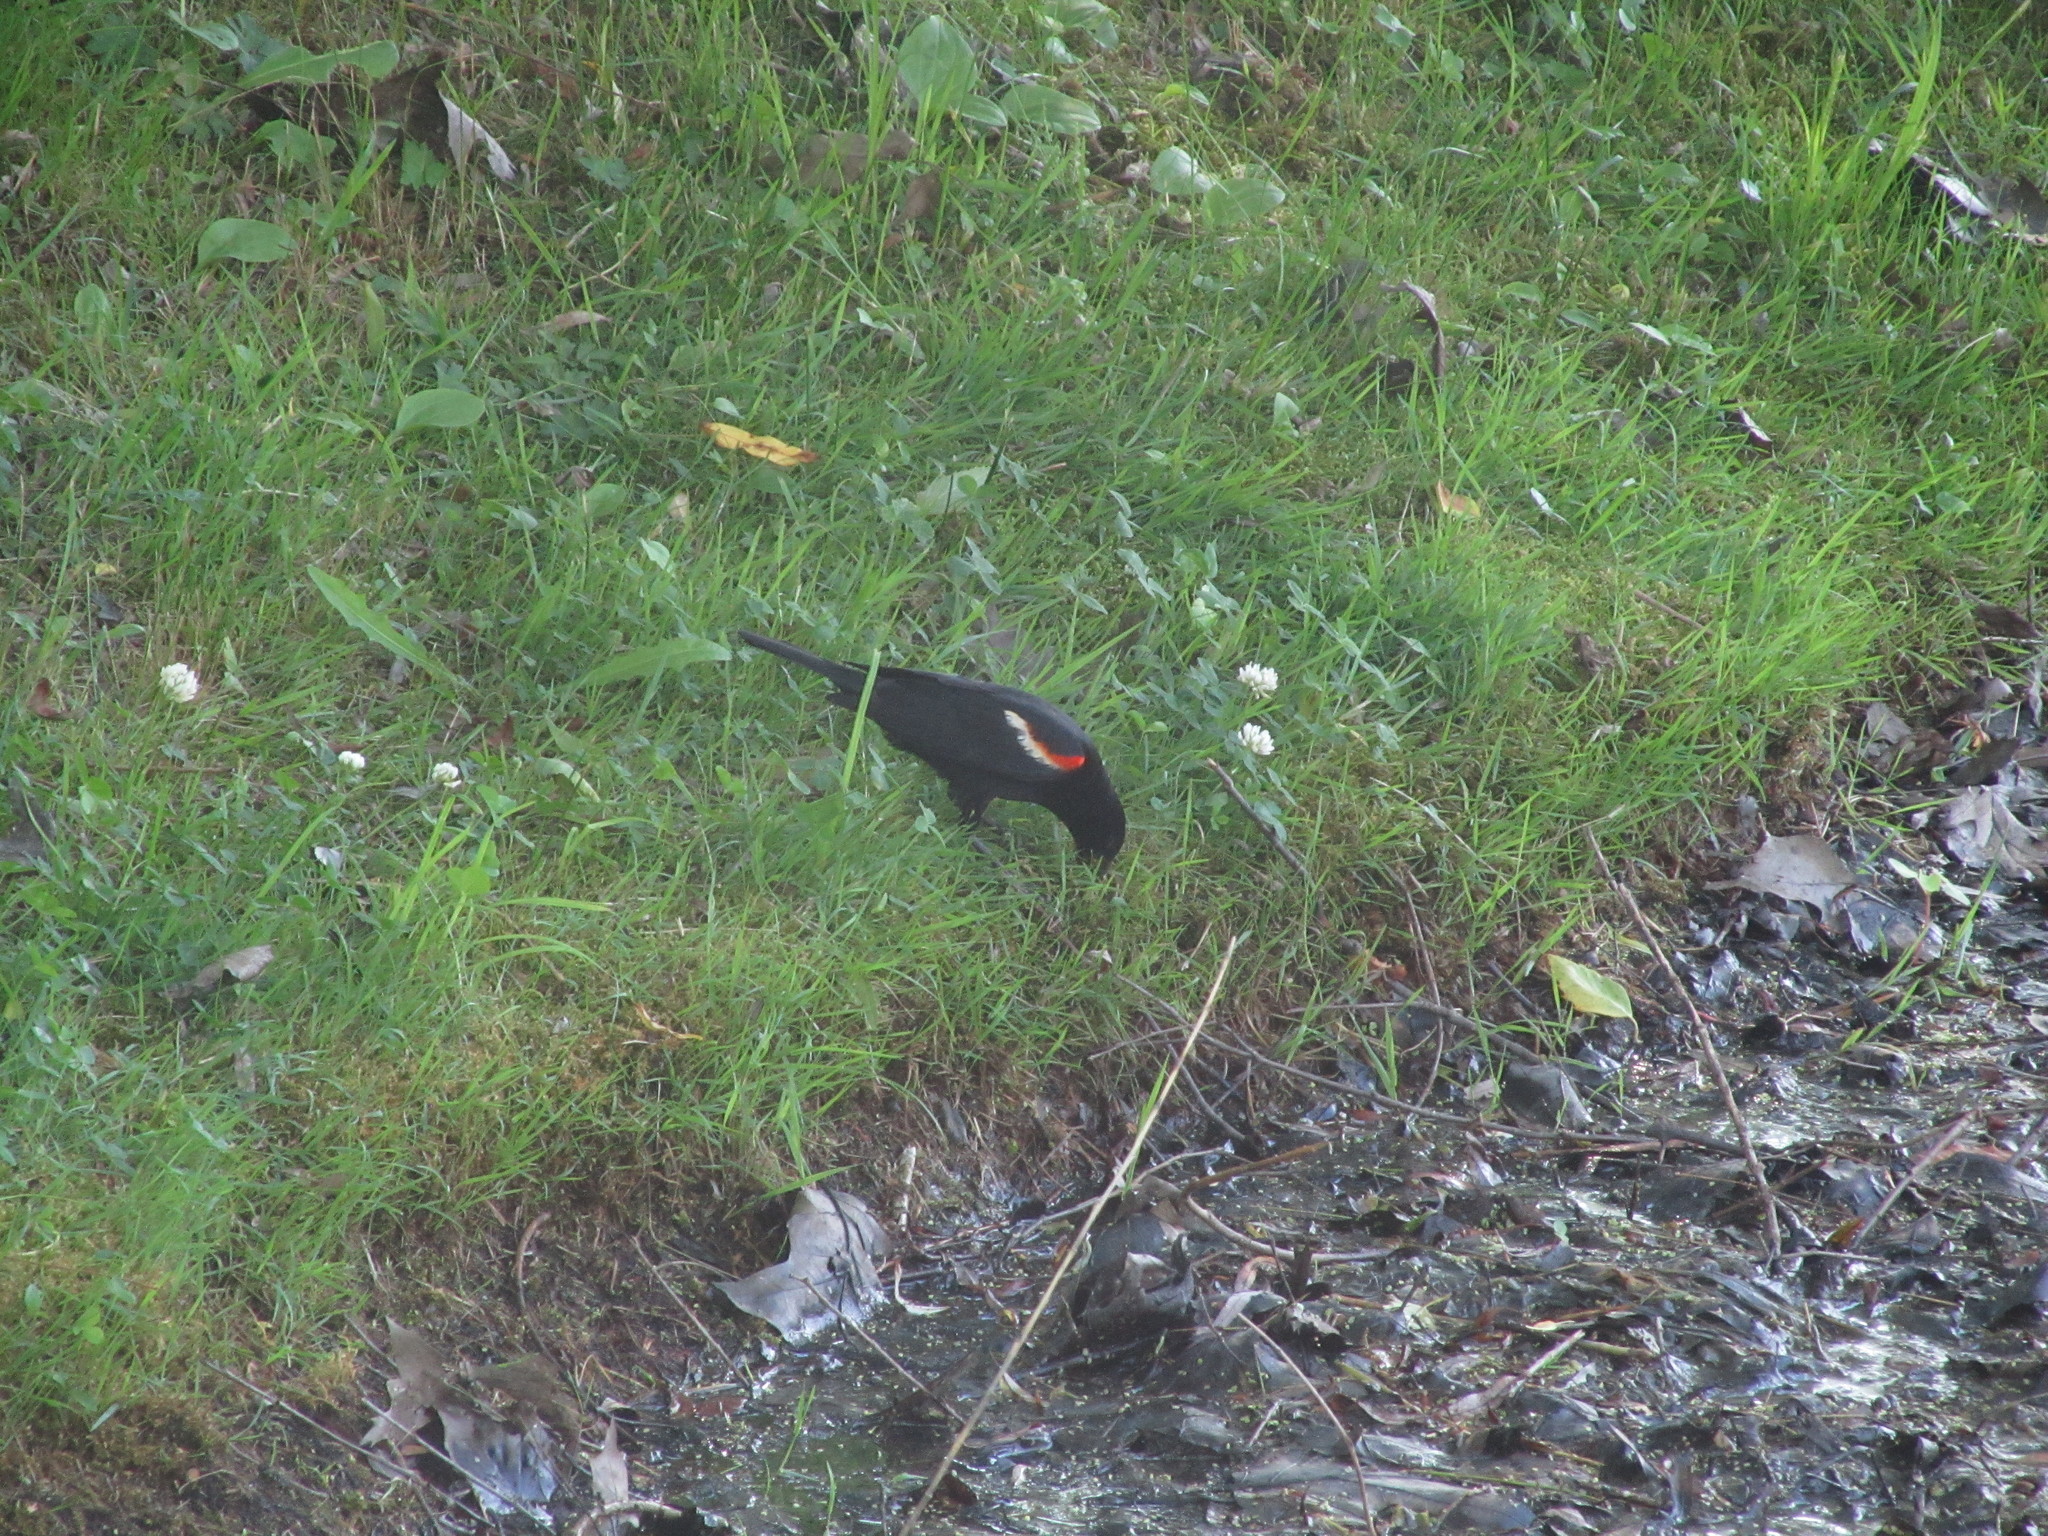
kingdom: Animalia
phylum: Chordata
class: Aves
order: Passeriformes
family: Icteridae
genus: Agelaius
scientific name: Agelaius phoeniceus
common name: Red-winged blackbird
